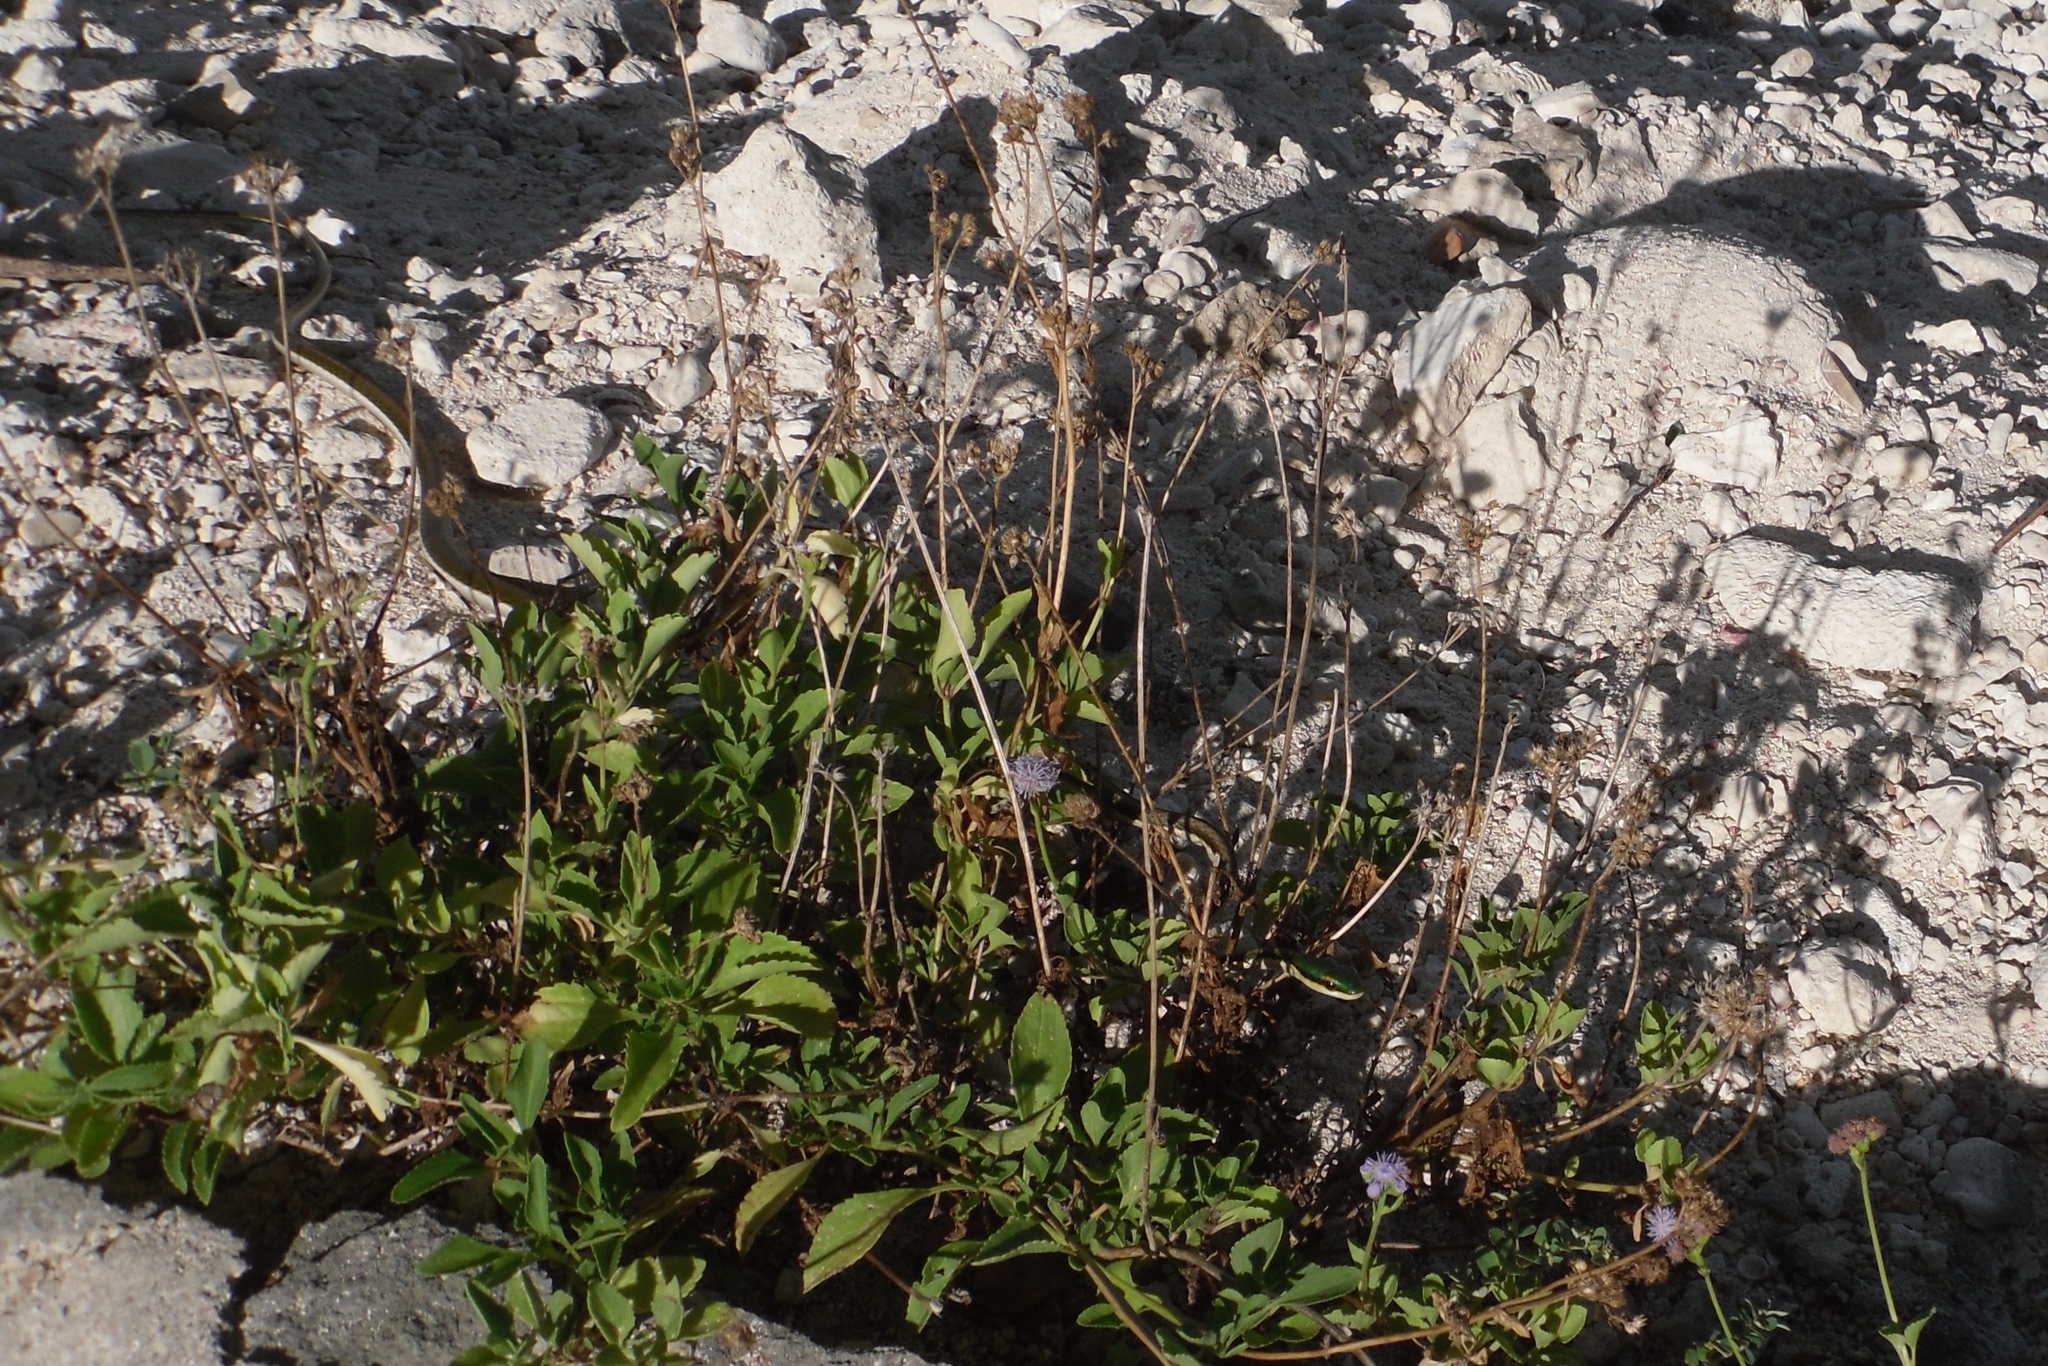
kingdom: Animalia
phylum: Chordata
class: Squamata
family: Colubridae
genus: Leptophis
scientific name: Leptophis mexicanus
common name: Mexican parrot snake
